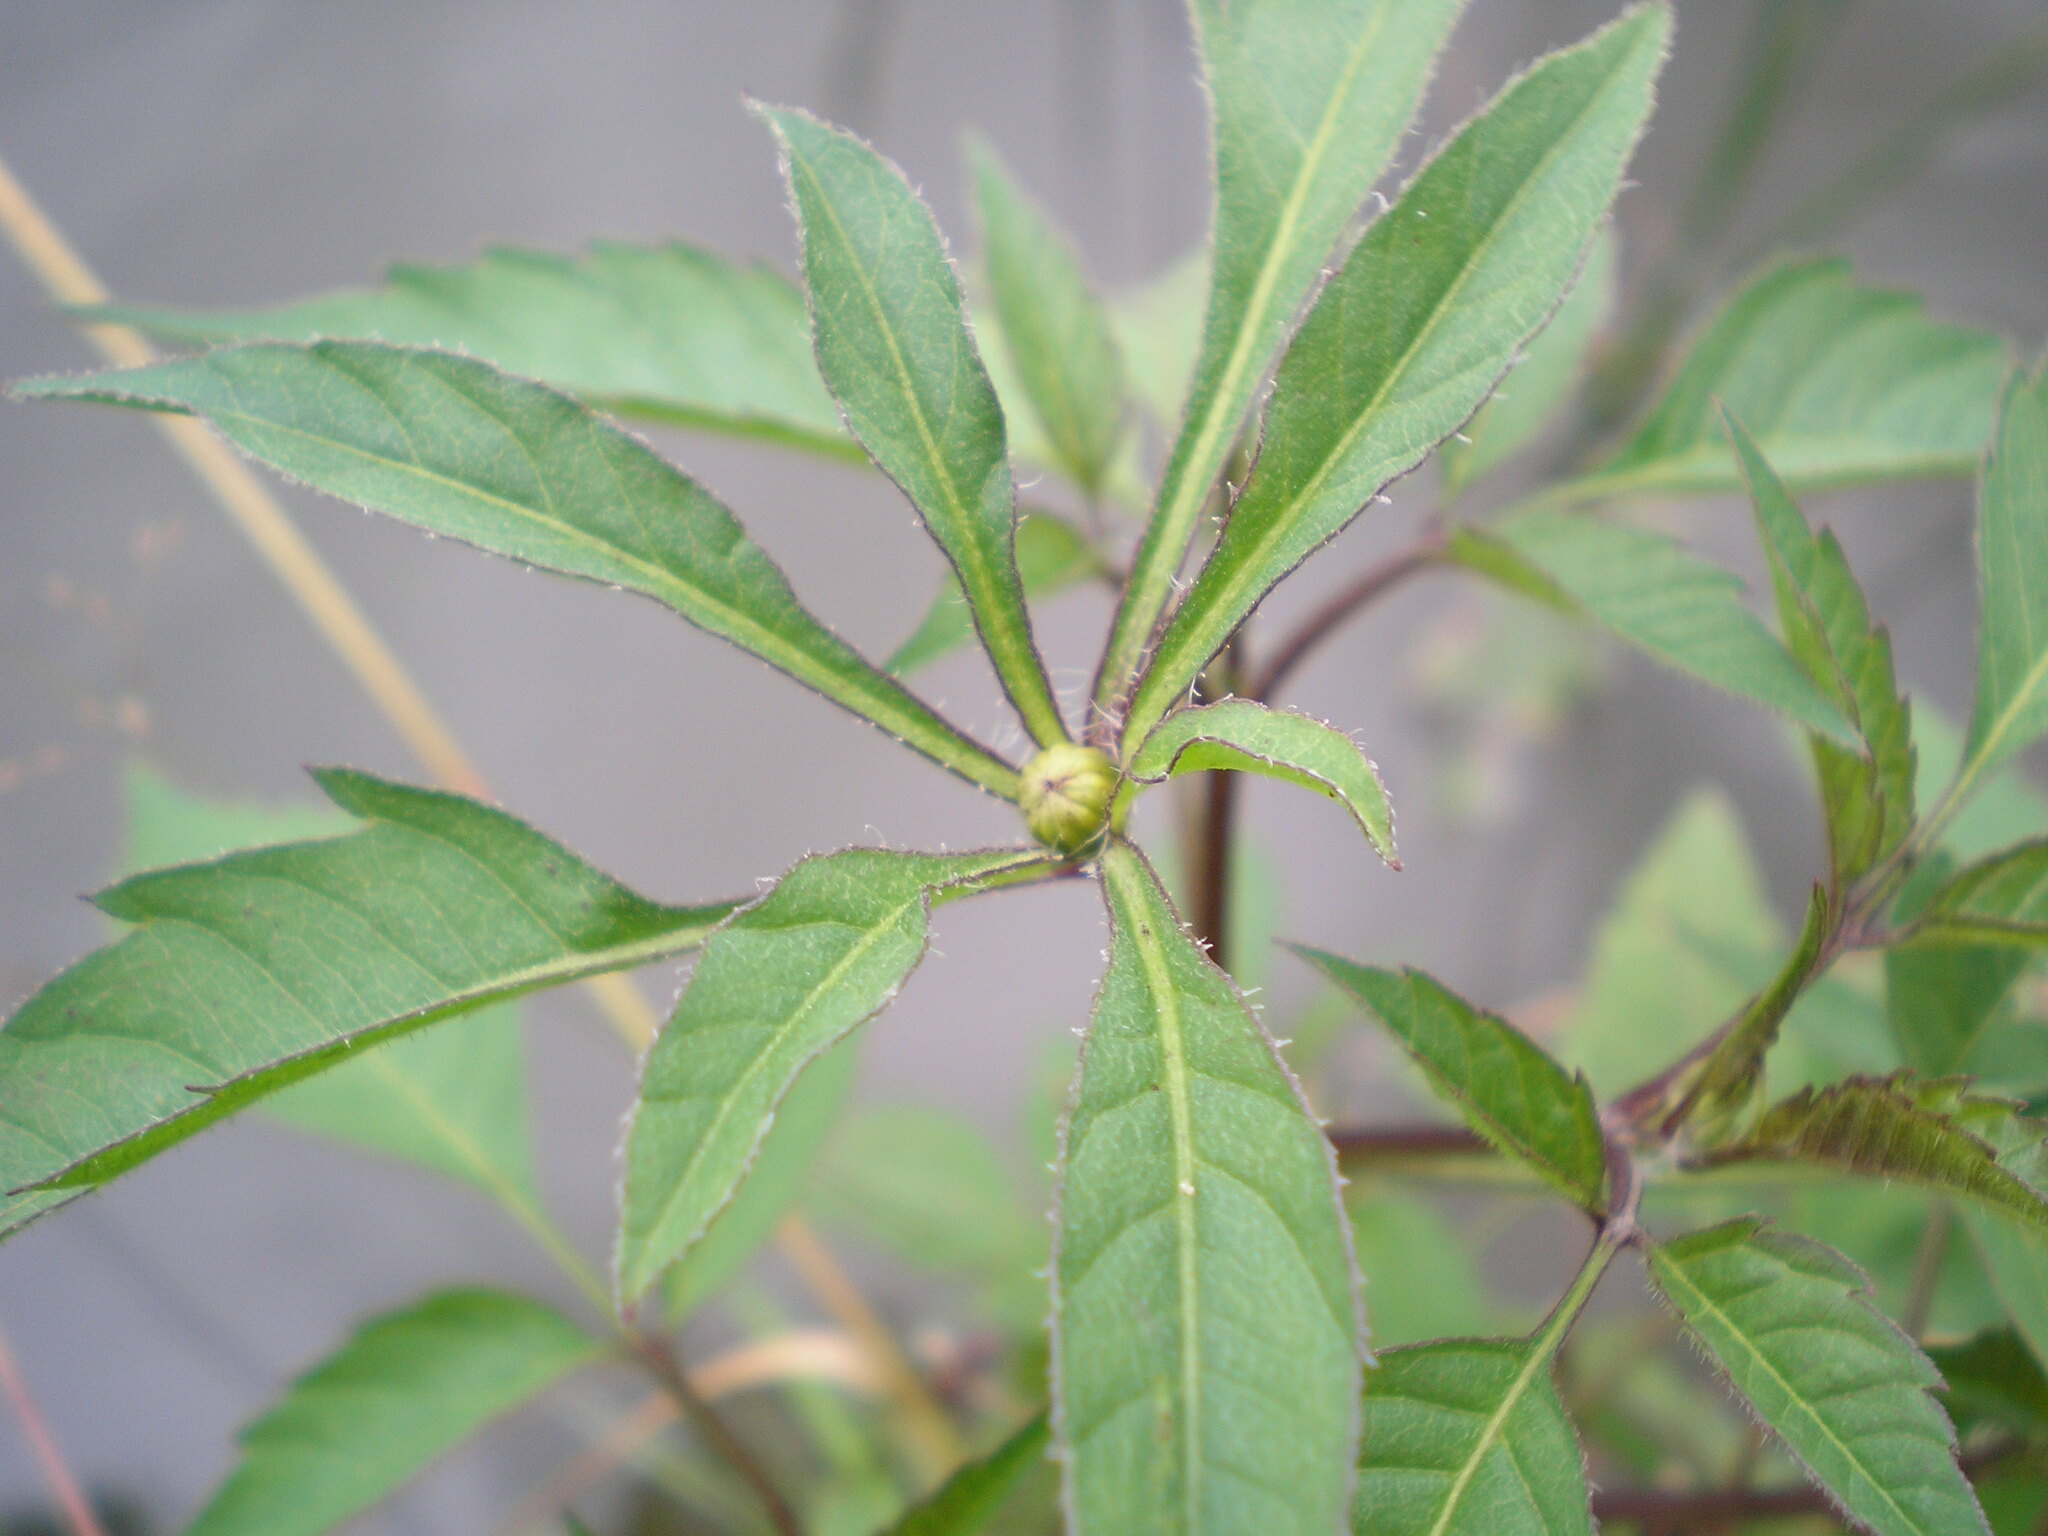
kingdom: Plantae
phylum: Tracheophyta
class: Magnoliopsida
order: Asterales
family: Asteraceae
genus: Bidens
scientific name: Bidens frondosa
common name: Beggarticks
